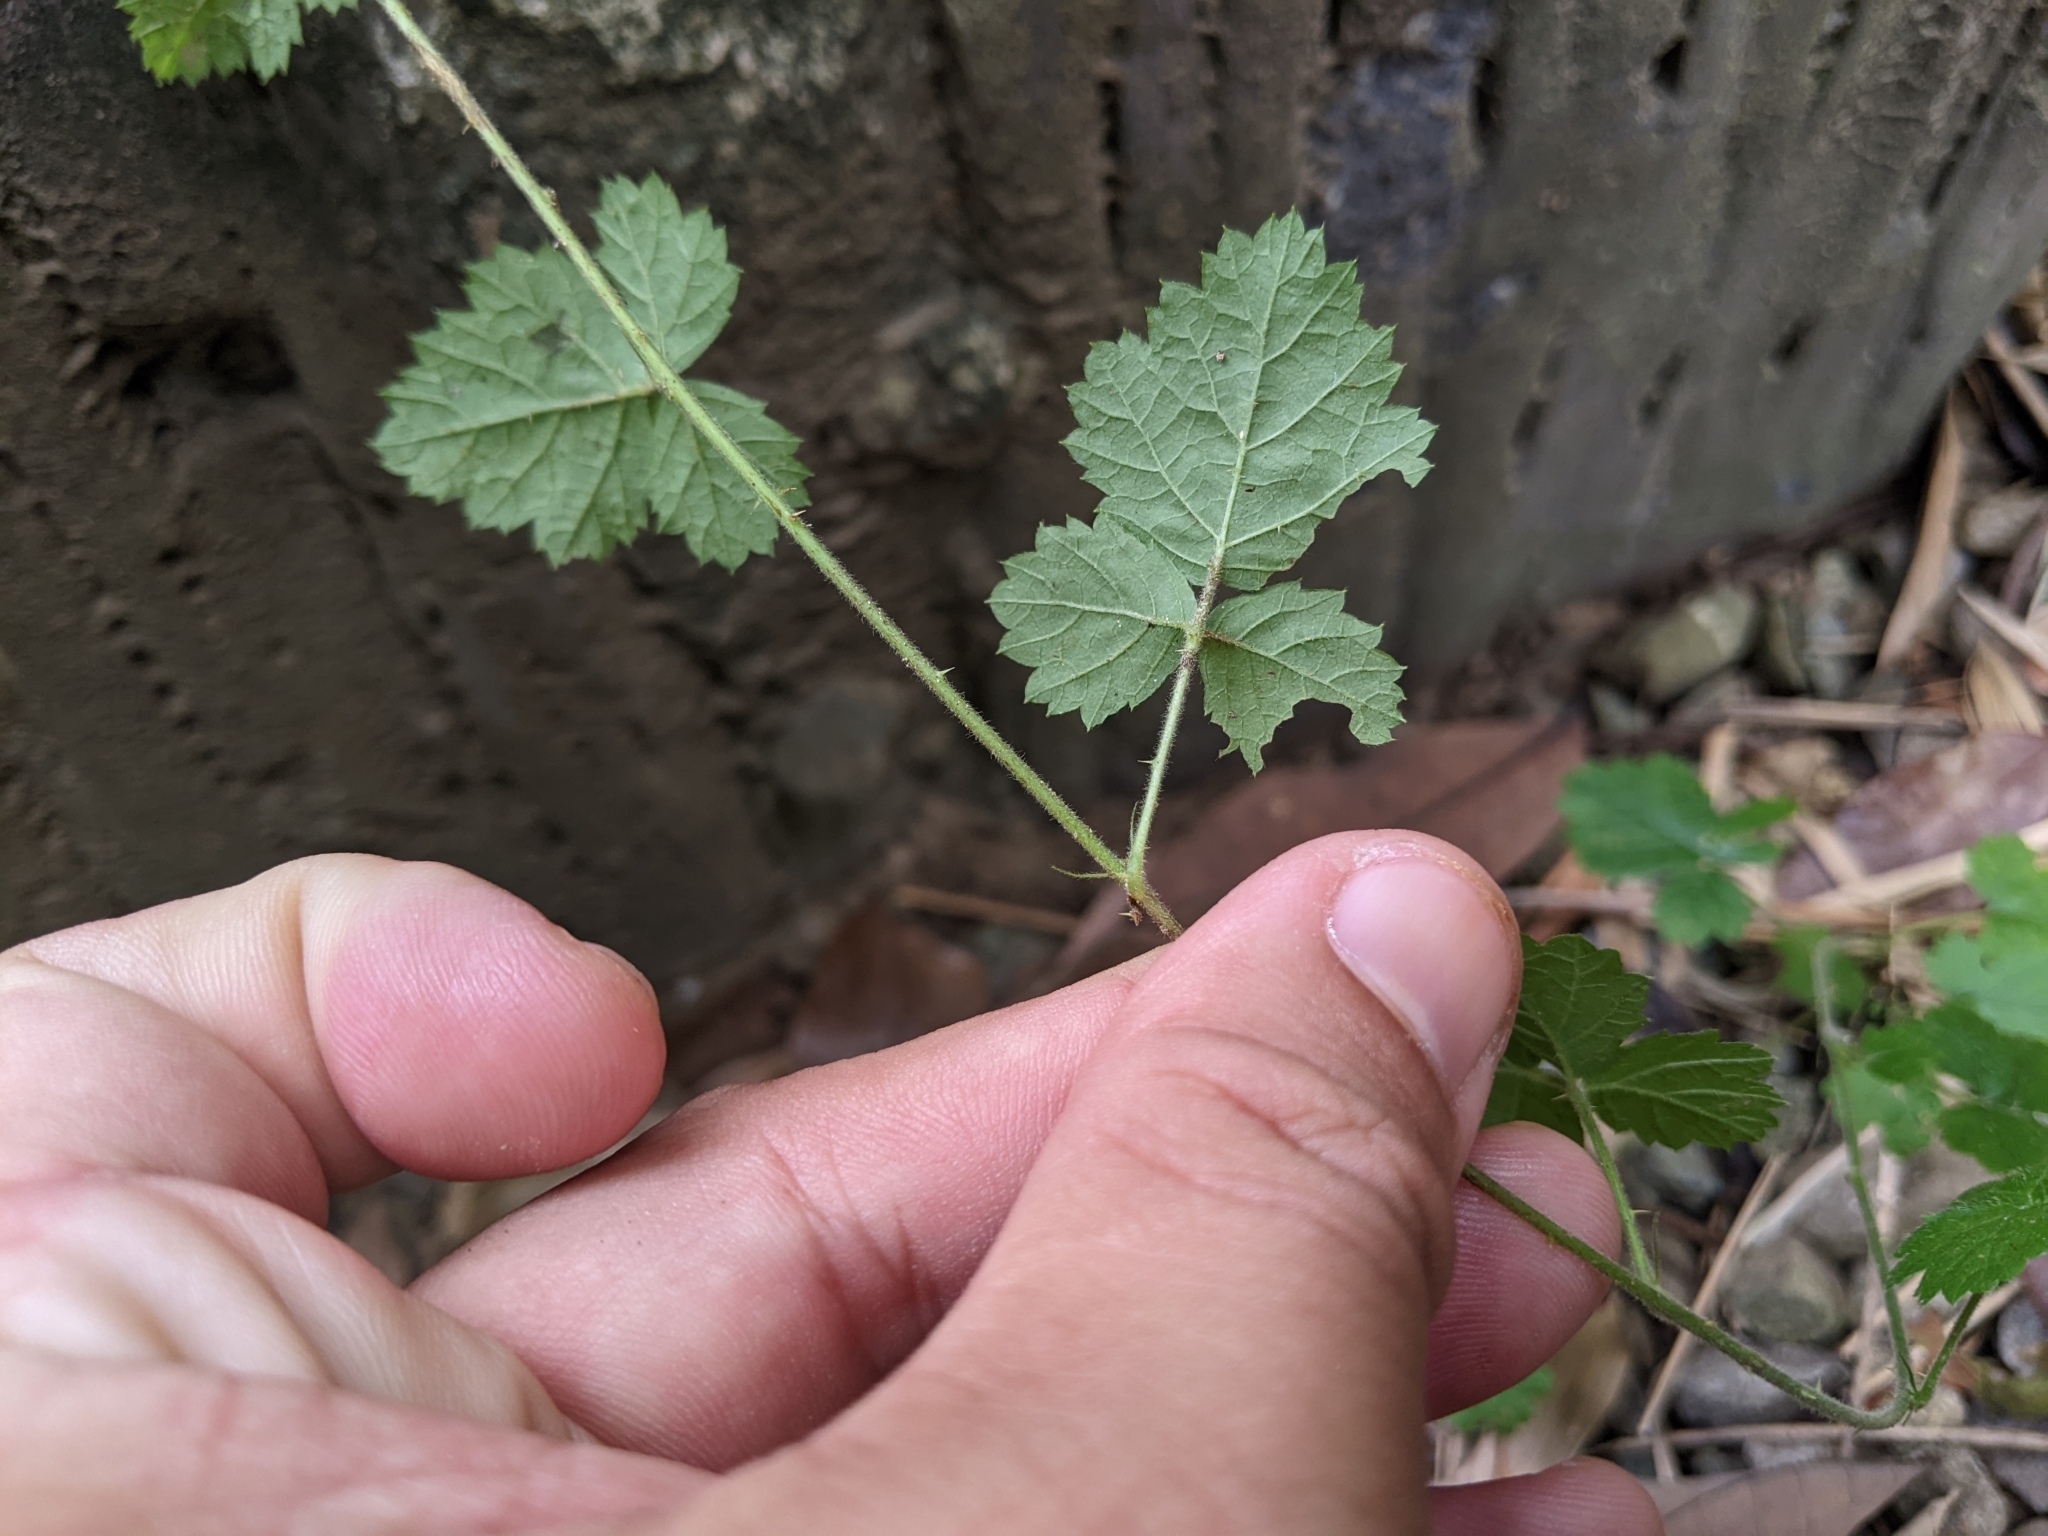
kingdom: Plantae
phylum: Tracheophyta
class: Magnoliopsida
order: Rosales
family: Rosaceae
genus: Rubus
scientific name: Rubus parvifolius
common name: Threeleaf blackberry
